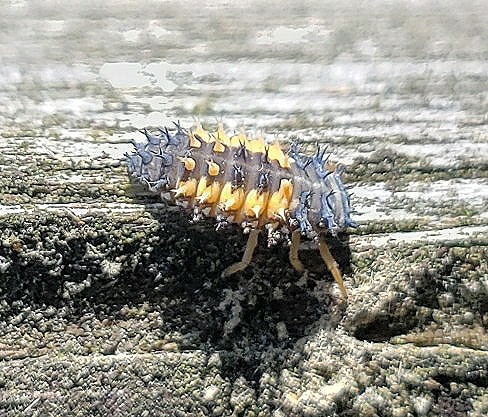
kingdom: Animalia
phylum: Arthropoda
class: Insecta
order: Coleoptera
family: Coccinellidae
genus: Harmonia
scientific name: Harmonia axyridis
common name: Harlequin ladybird
